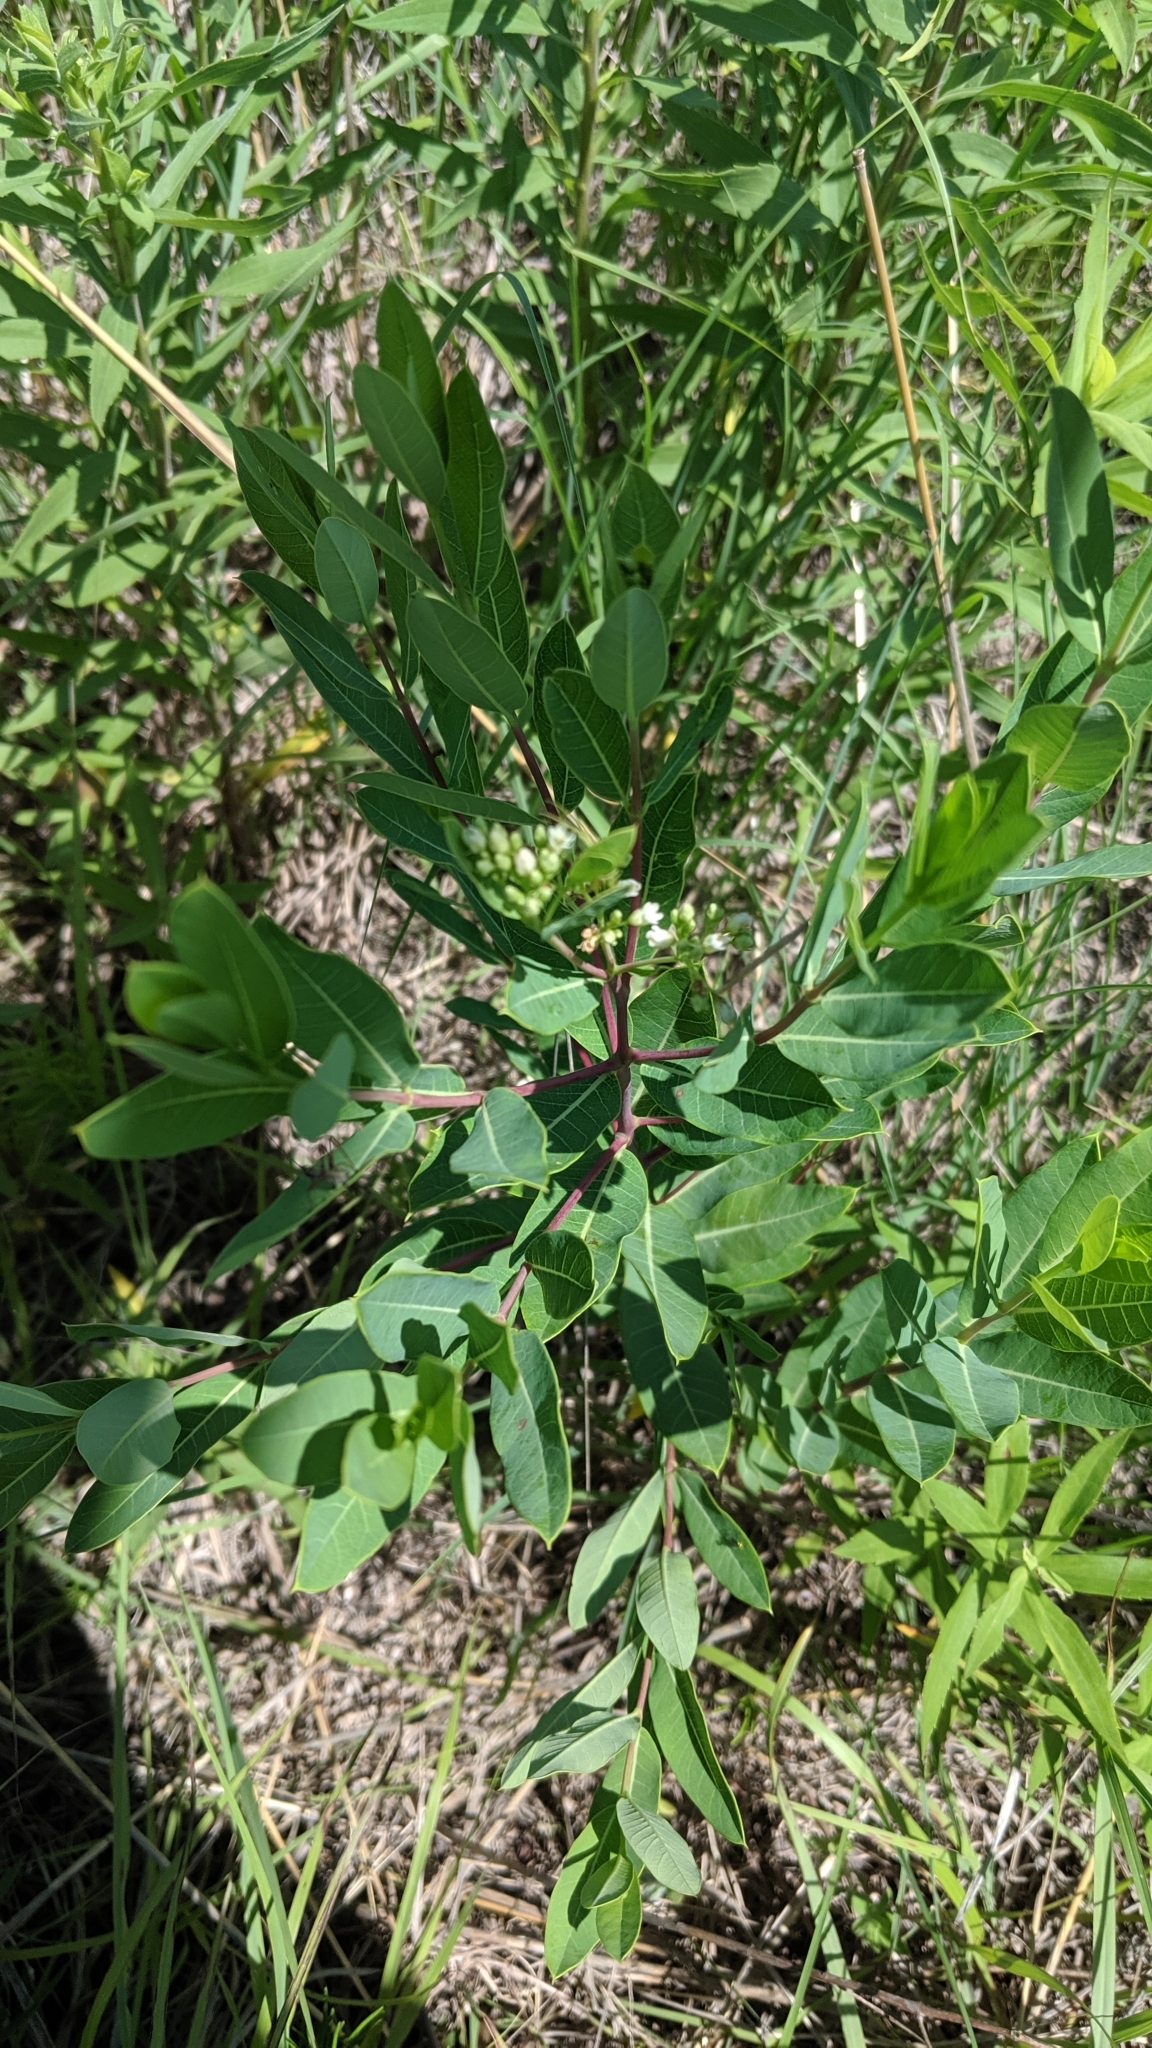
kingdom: Plantae
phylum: Tracheophyta
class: Magnoliopsida
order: Gentianales
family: Apocynaceae
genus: Apocynum
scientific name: Apocynum cannabinum
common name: Hemp dogbane
